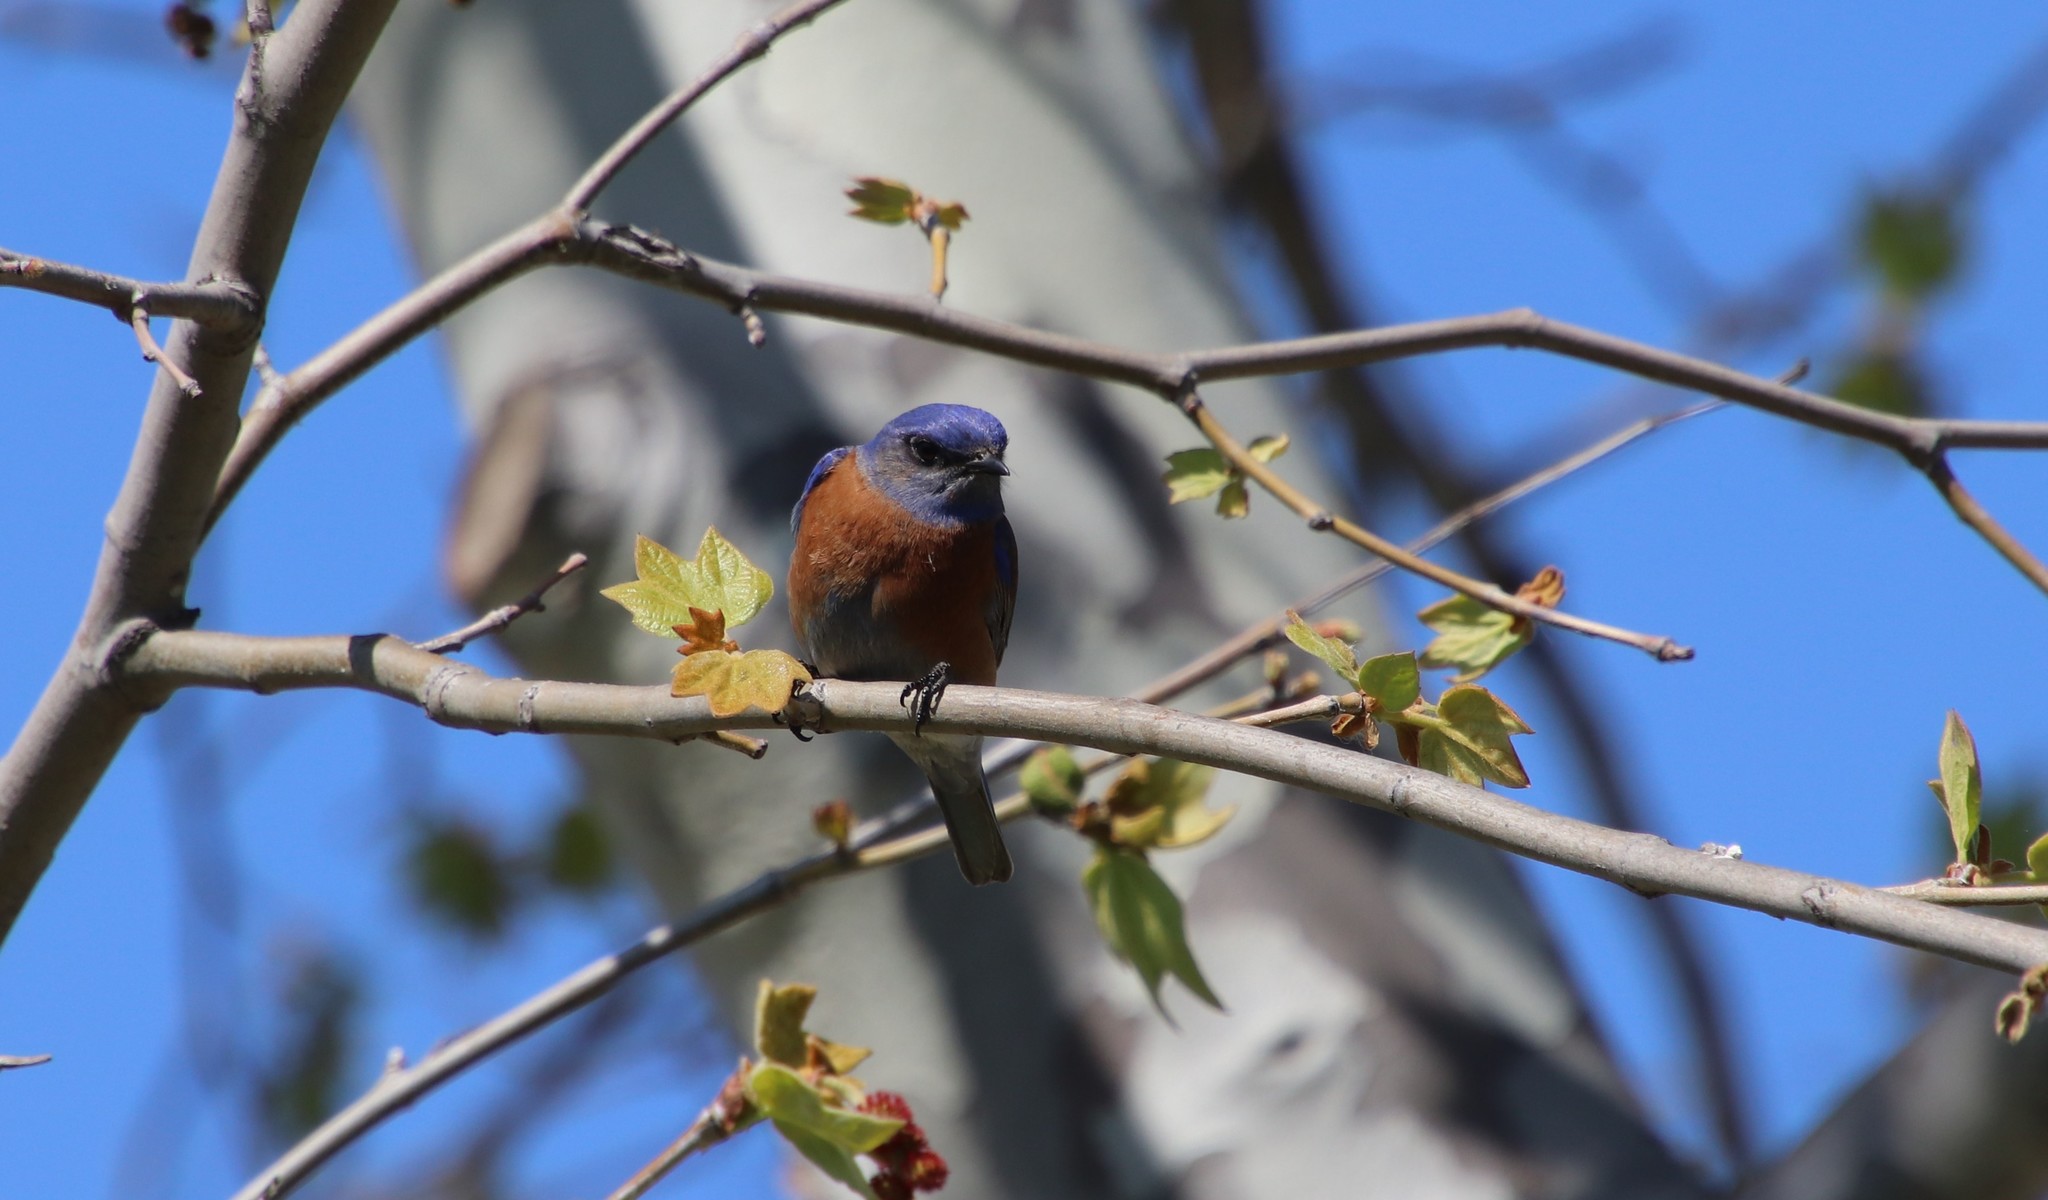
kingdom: Animalia
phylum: Chordata
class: Aves
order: Passeriformes
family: Turdidae
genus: Sialia
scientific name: Sialia mexicana
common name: Western bluebird
